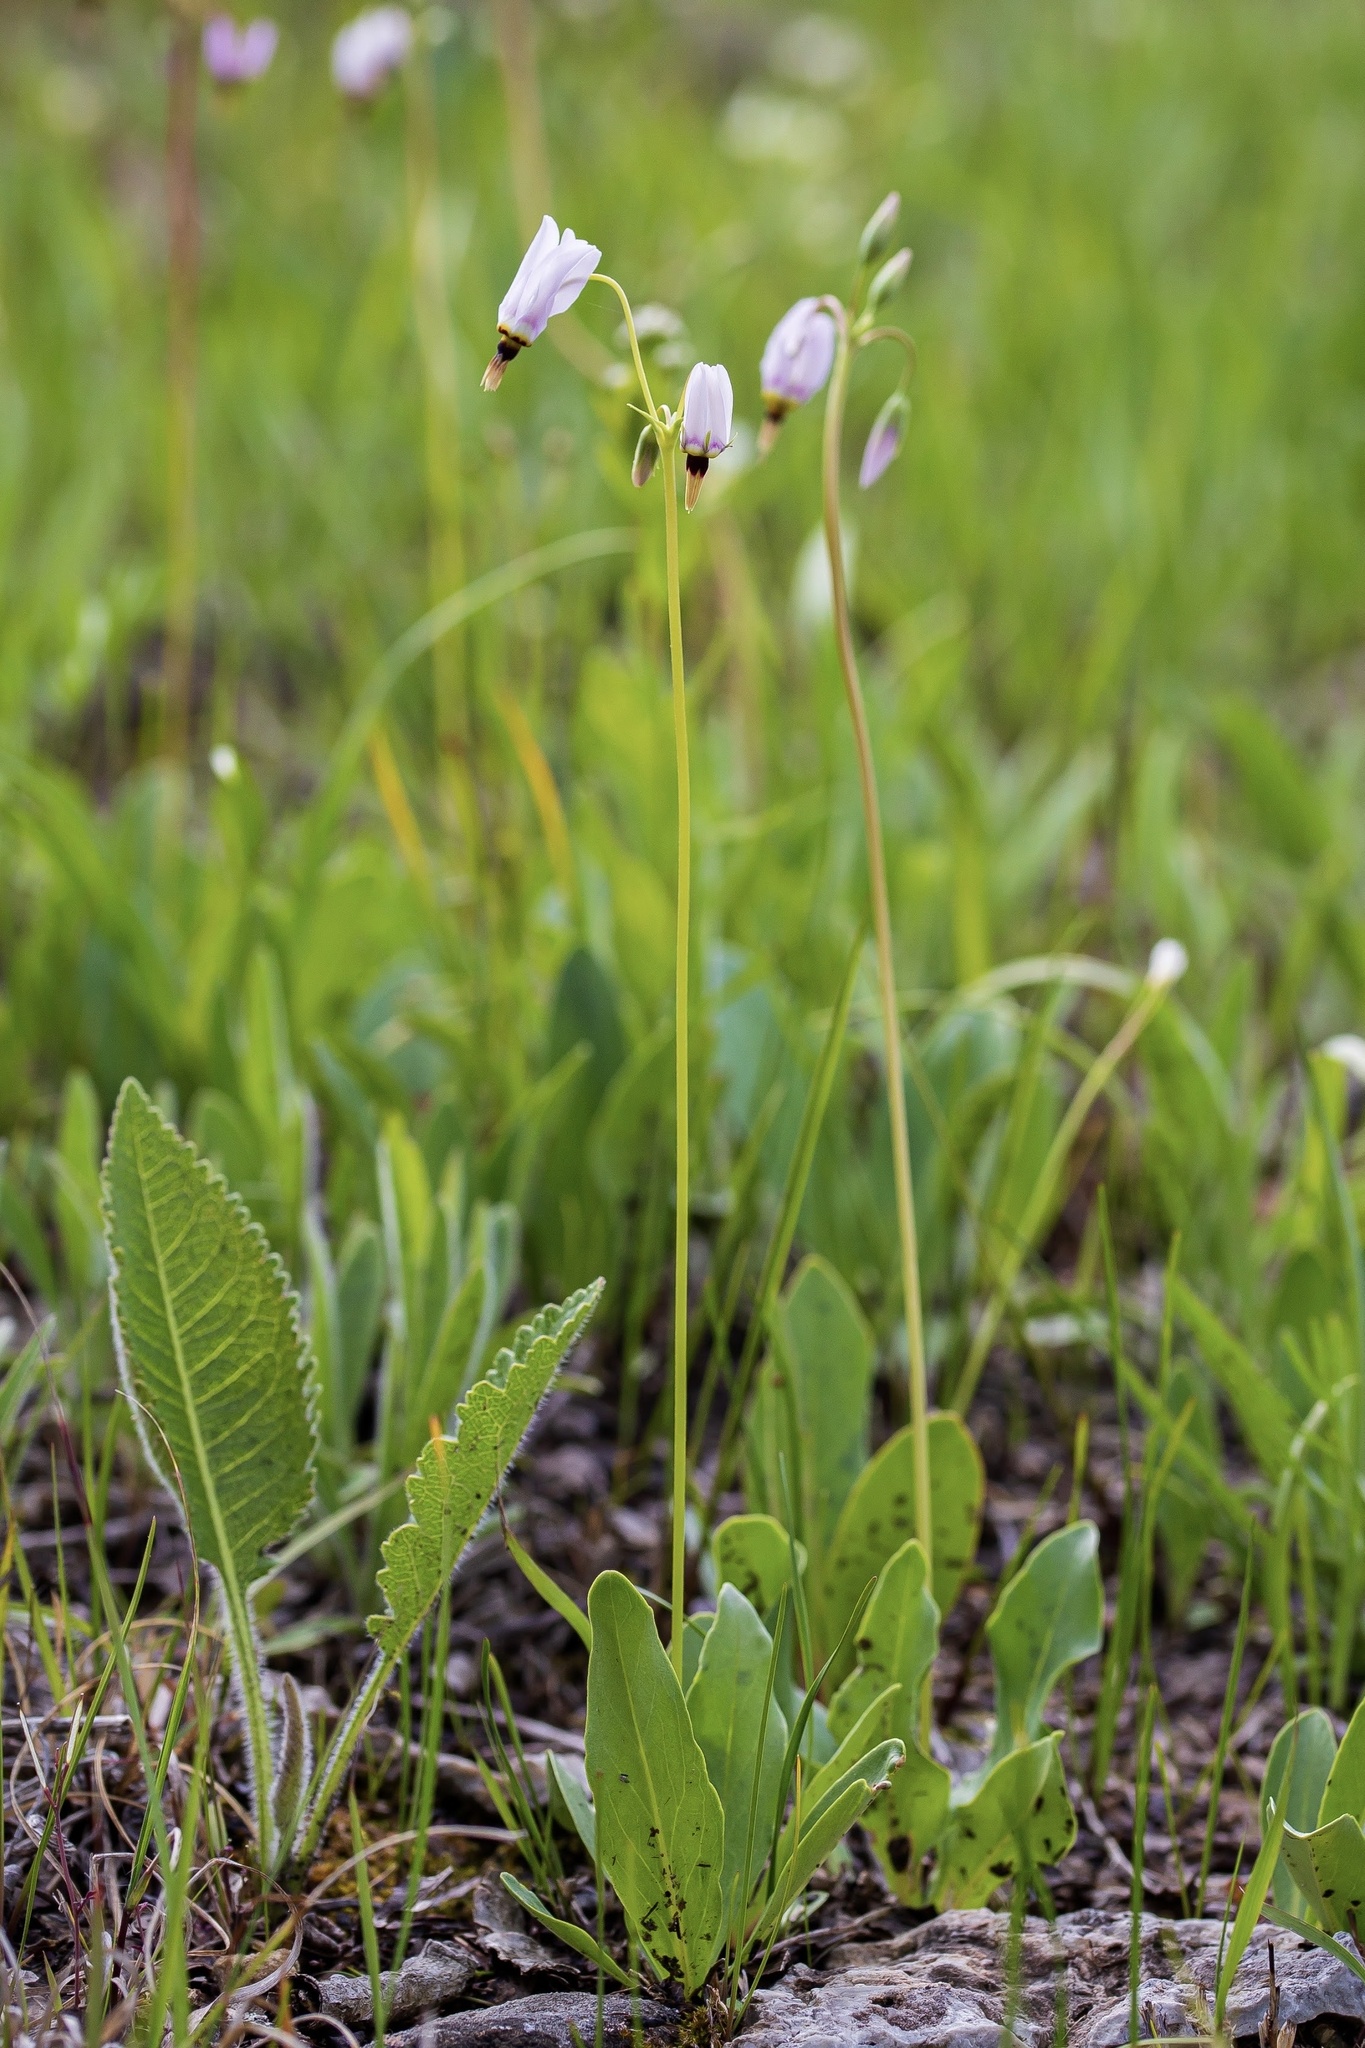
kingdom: Plantae
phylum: Tracheophyta
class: Magnoliopsida
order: Ericales
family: Primulaceae
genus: Dodecatheon
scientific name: Dodecatheon meadia
